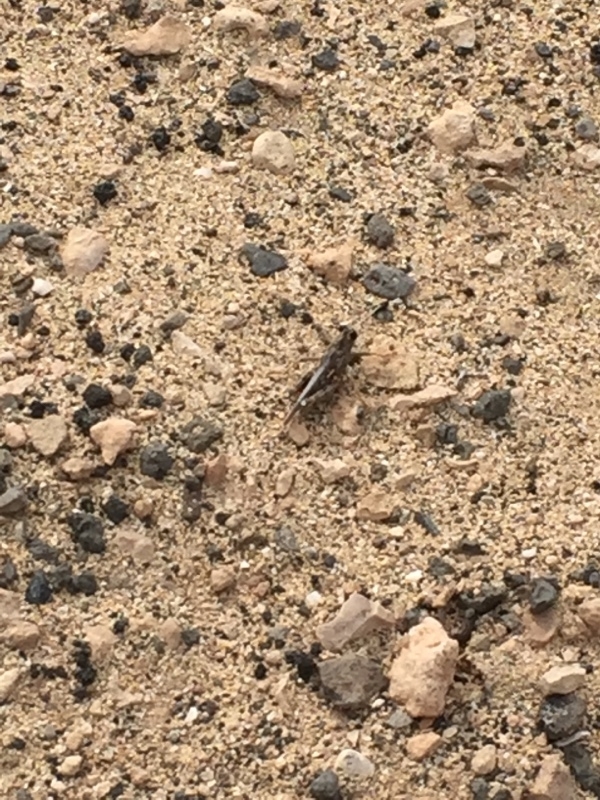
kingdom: Animalia
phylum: Arthropoda
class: Insecta
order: Orthoptera
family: Dericorythidae
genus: Dericorys
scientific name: Dericorys lobata
